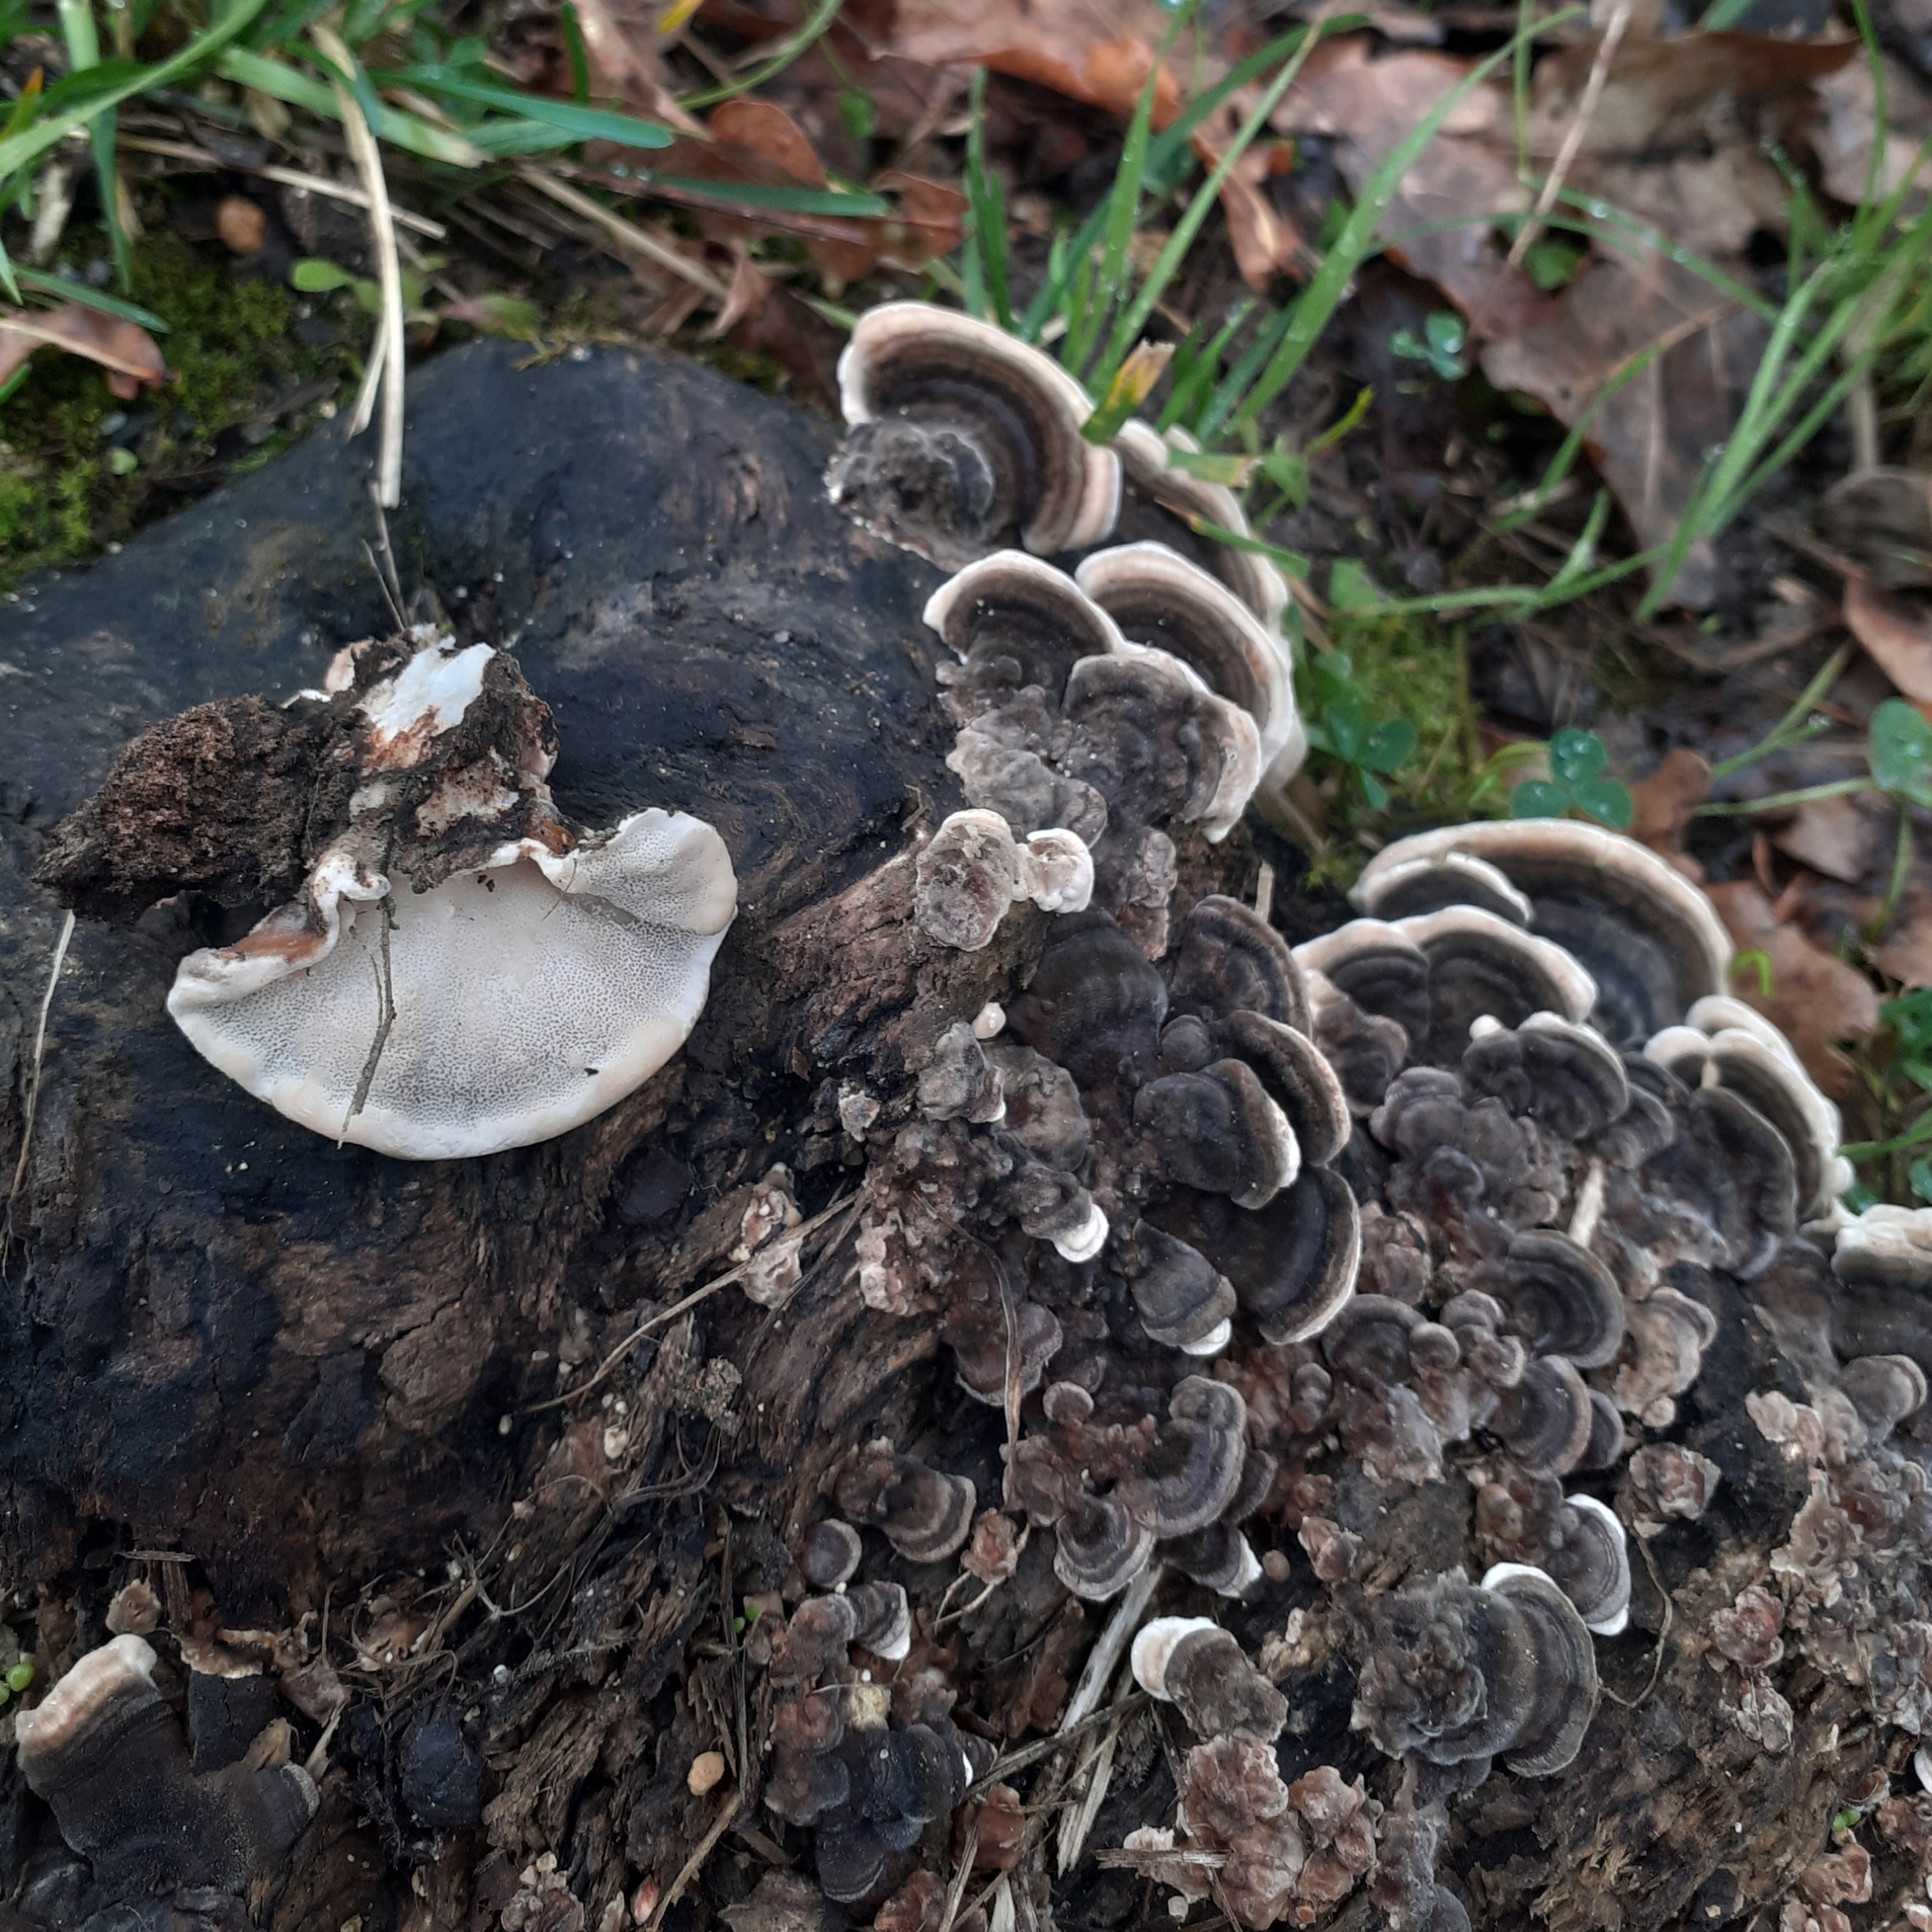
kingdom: Fungi
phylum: Basidiomycota
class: Agaricomycetes
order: Polyporales
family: Phanerochaetaceae
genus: Bjerkandera
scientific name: Bjerkandera adusta
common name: Smoky bracket
